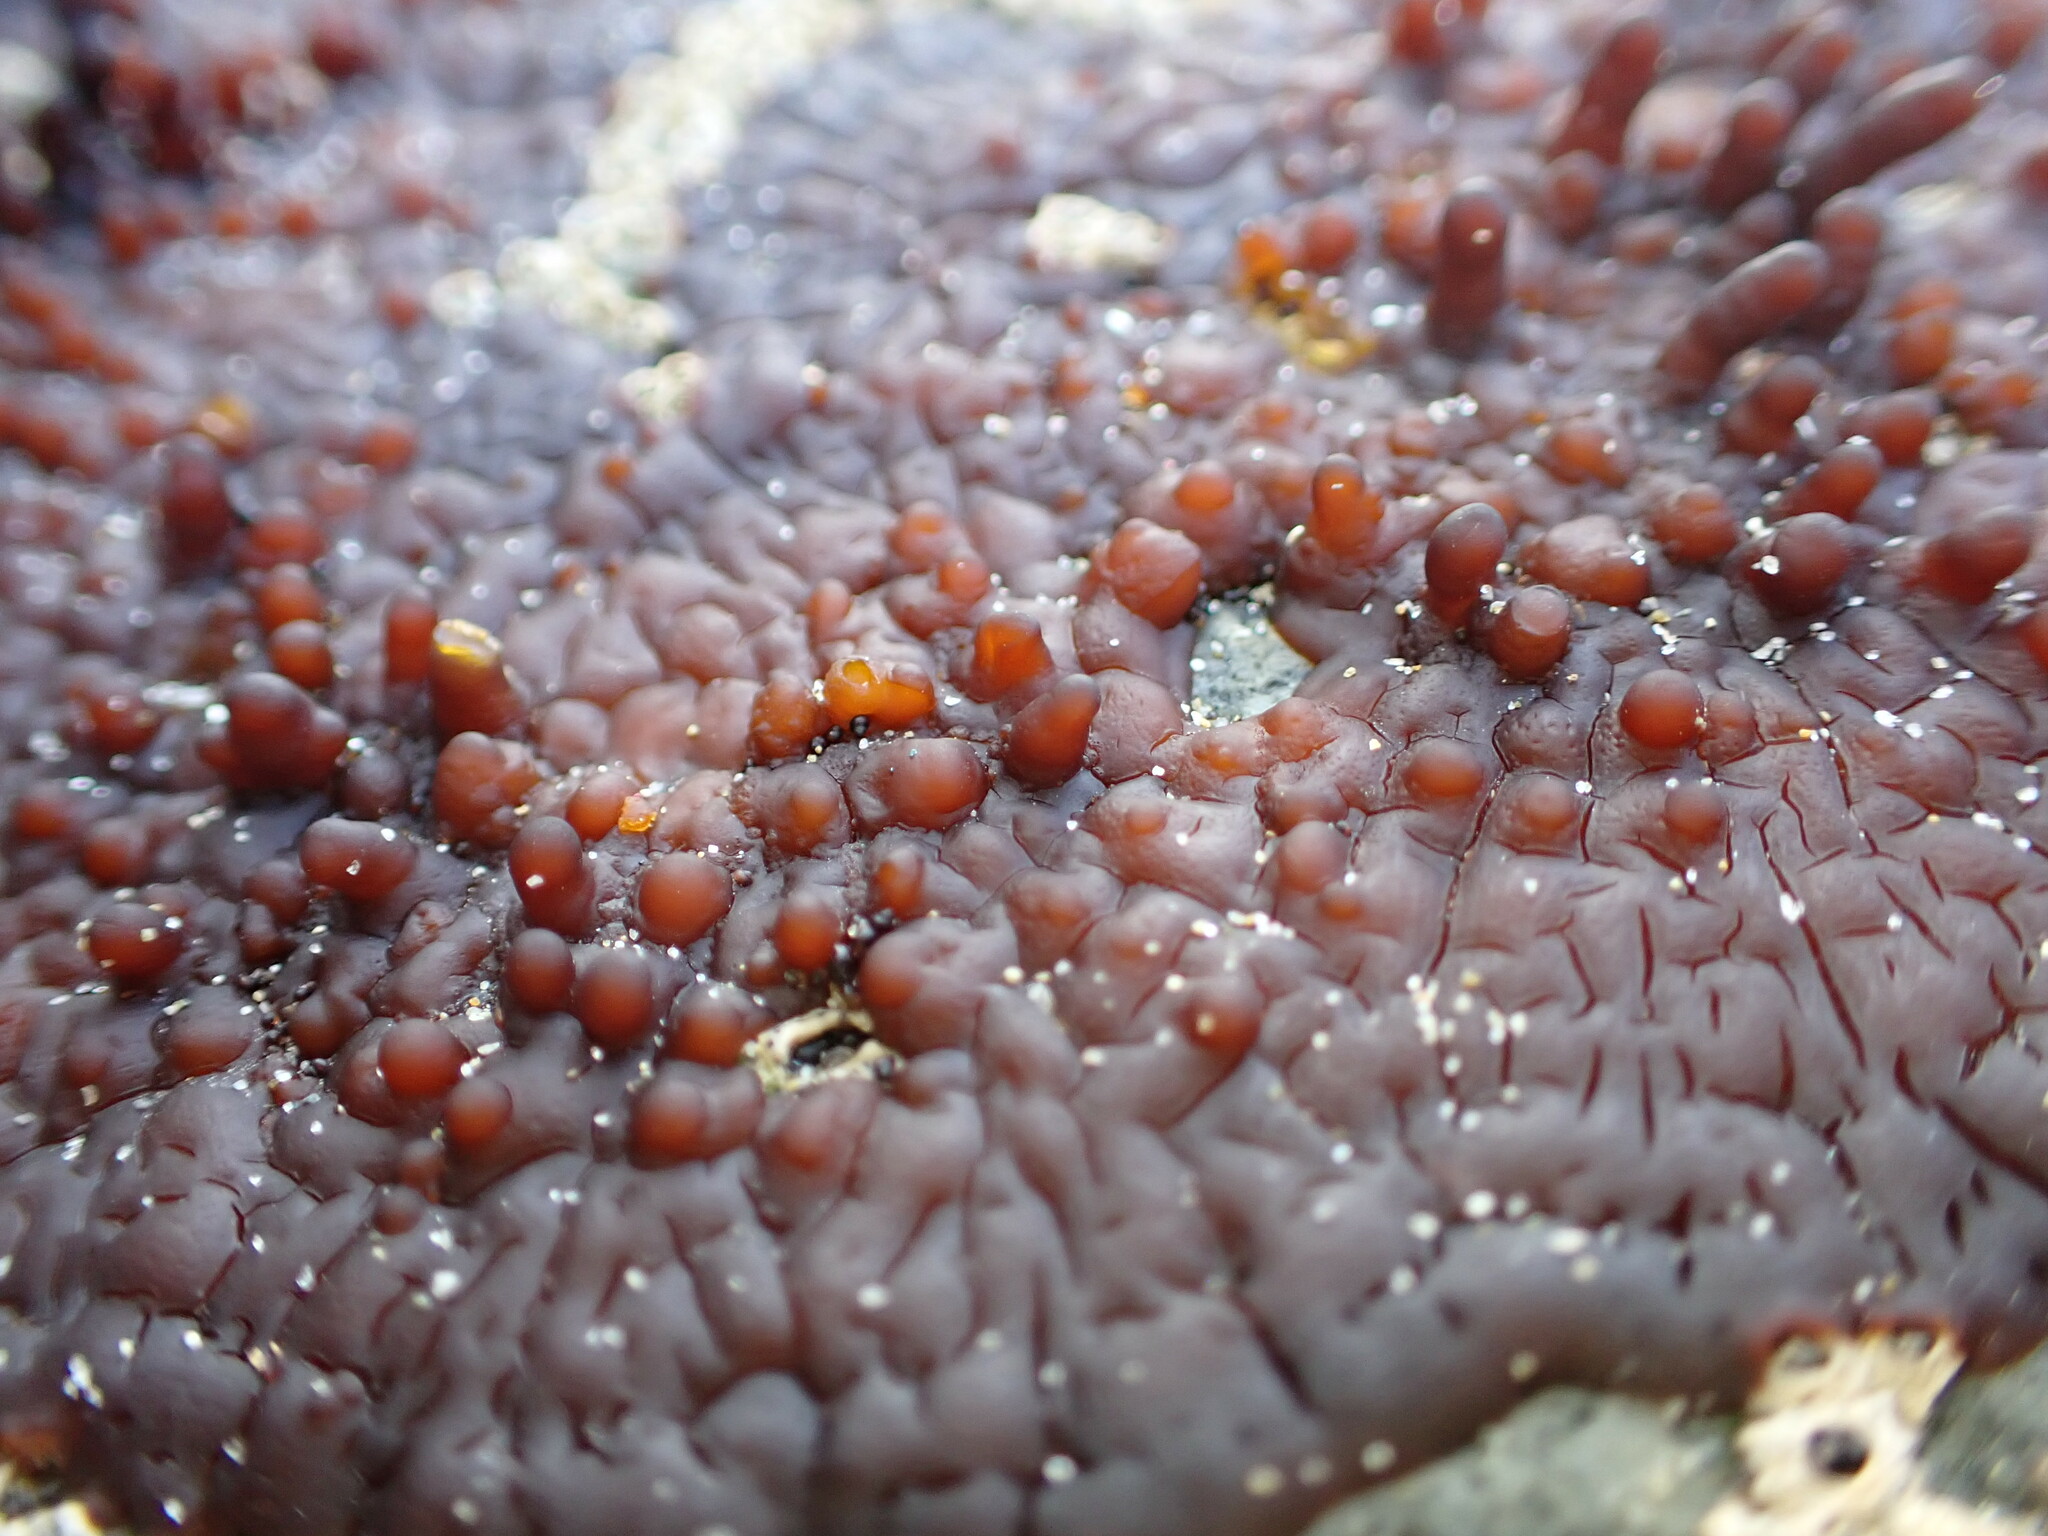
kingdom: Plantae
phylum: Rhodophyta
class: Florideophyceae
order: Hildenbrandiales
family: Hildenbrandiaceae
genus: Apophlaea
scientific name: Apophlaea sinclairii
